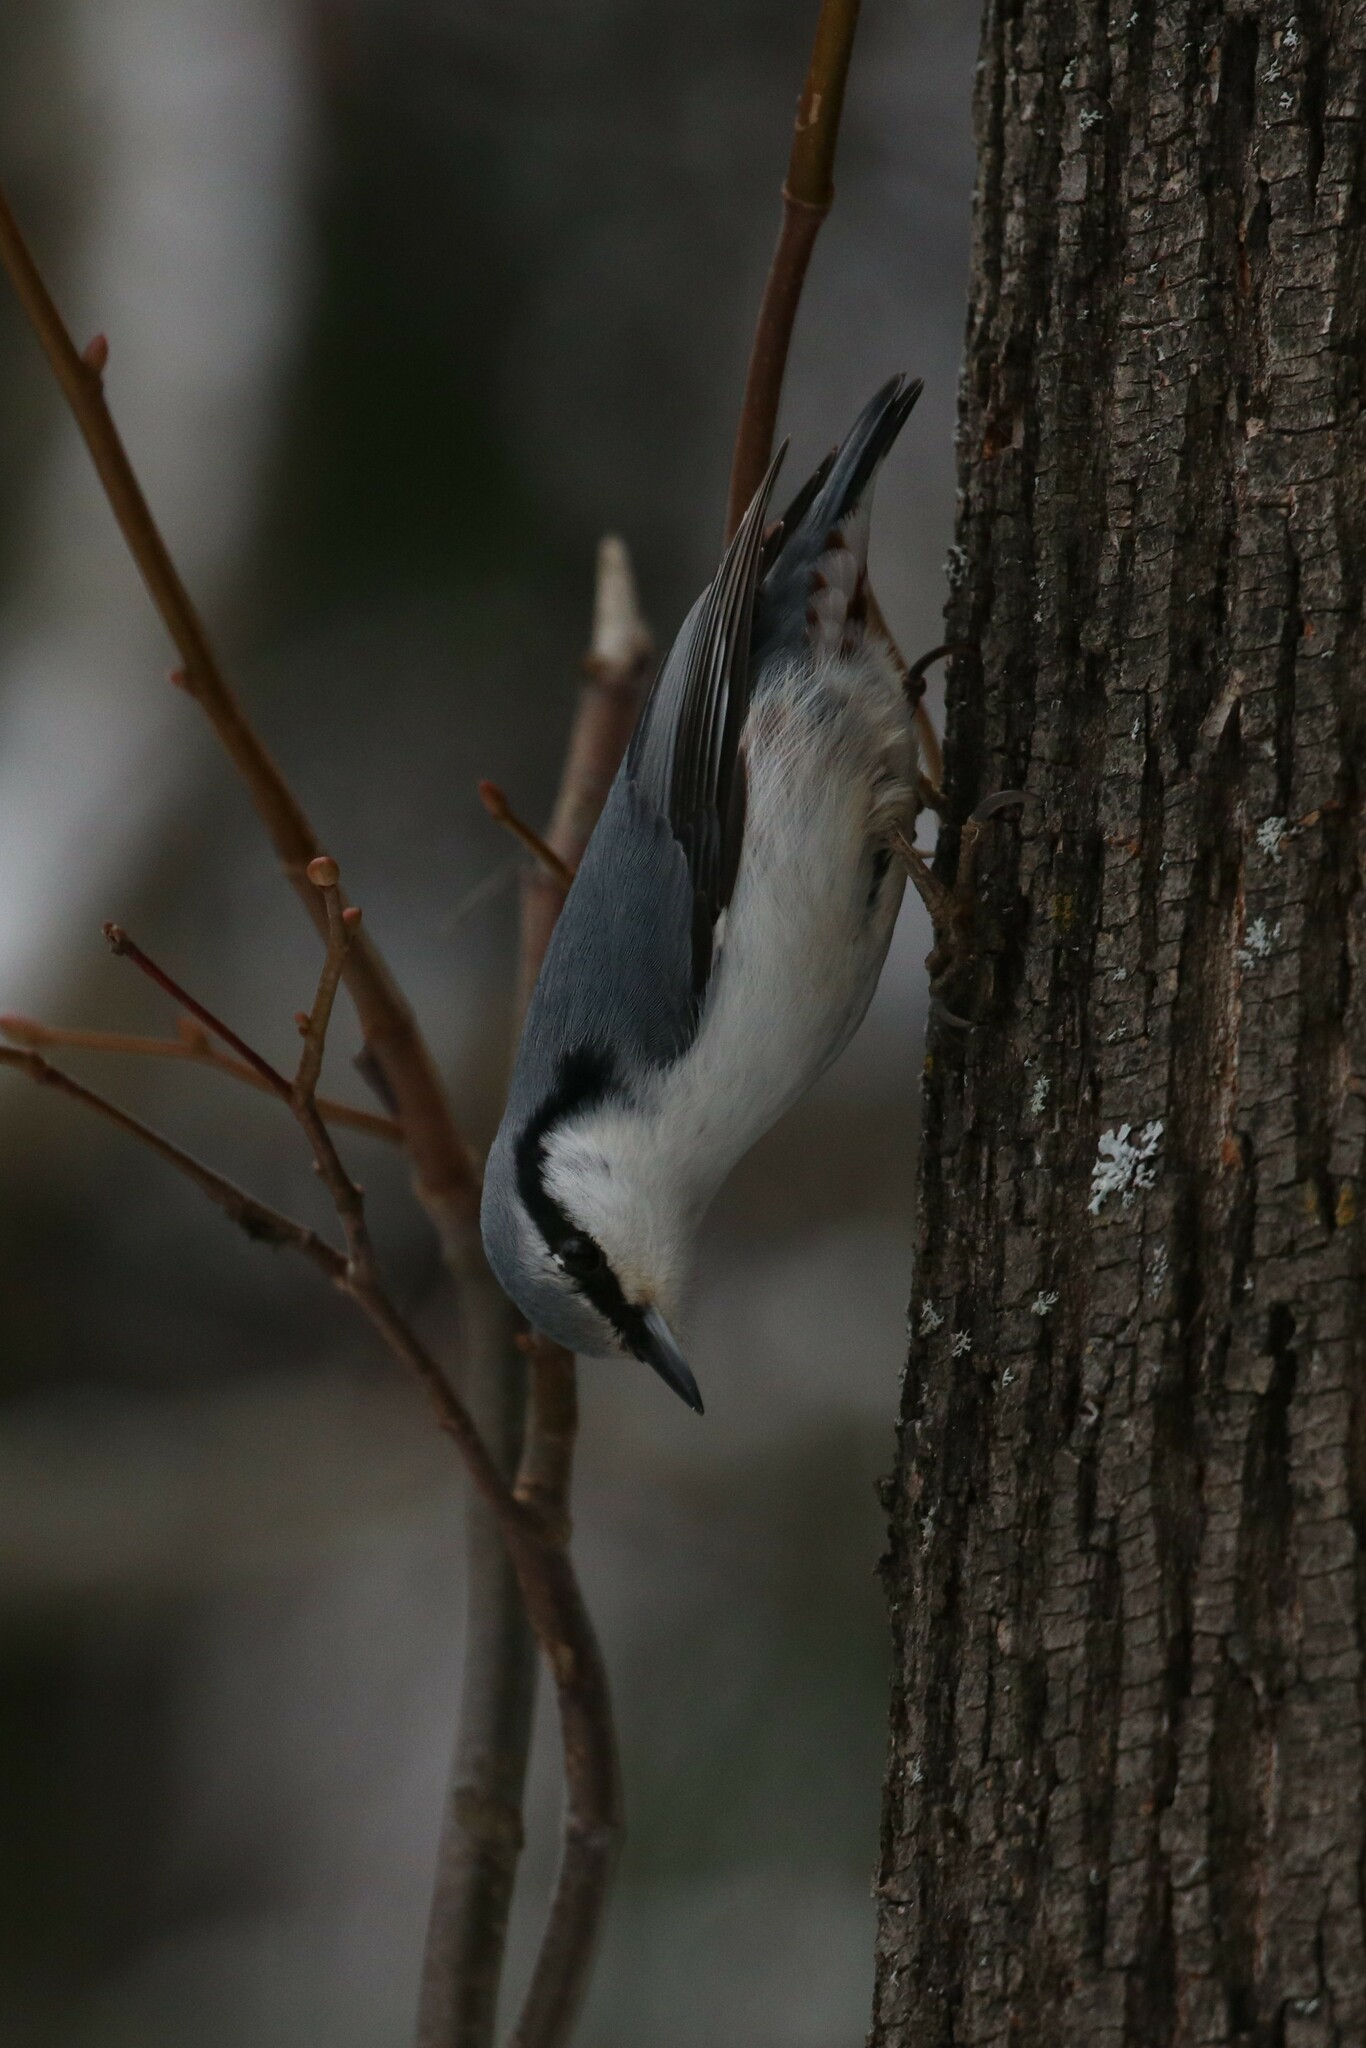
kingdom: Animalia
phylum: Chordata
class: Aves
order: Passeriformes
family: Sittidae
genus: Sitta
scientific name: Sitta europaea
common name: Eurasian nuthatch
